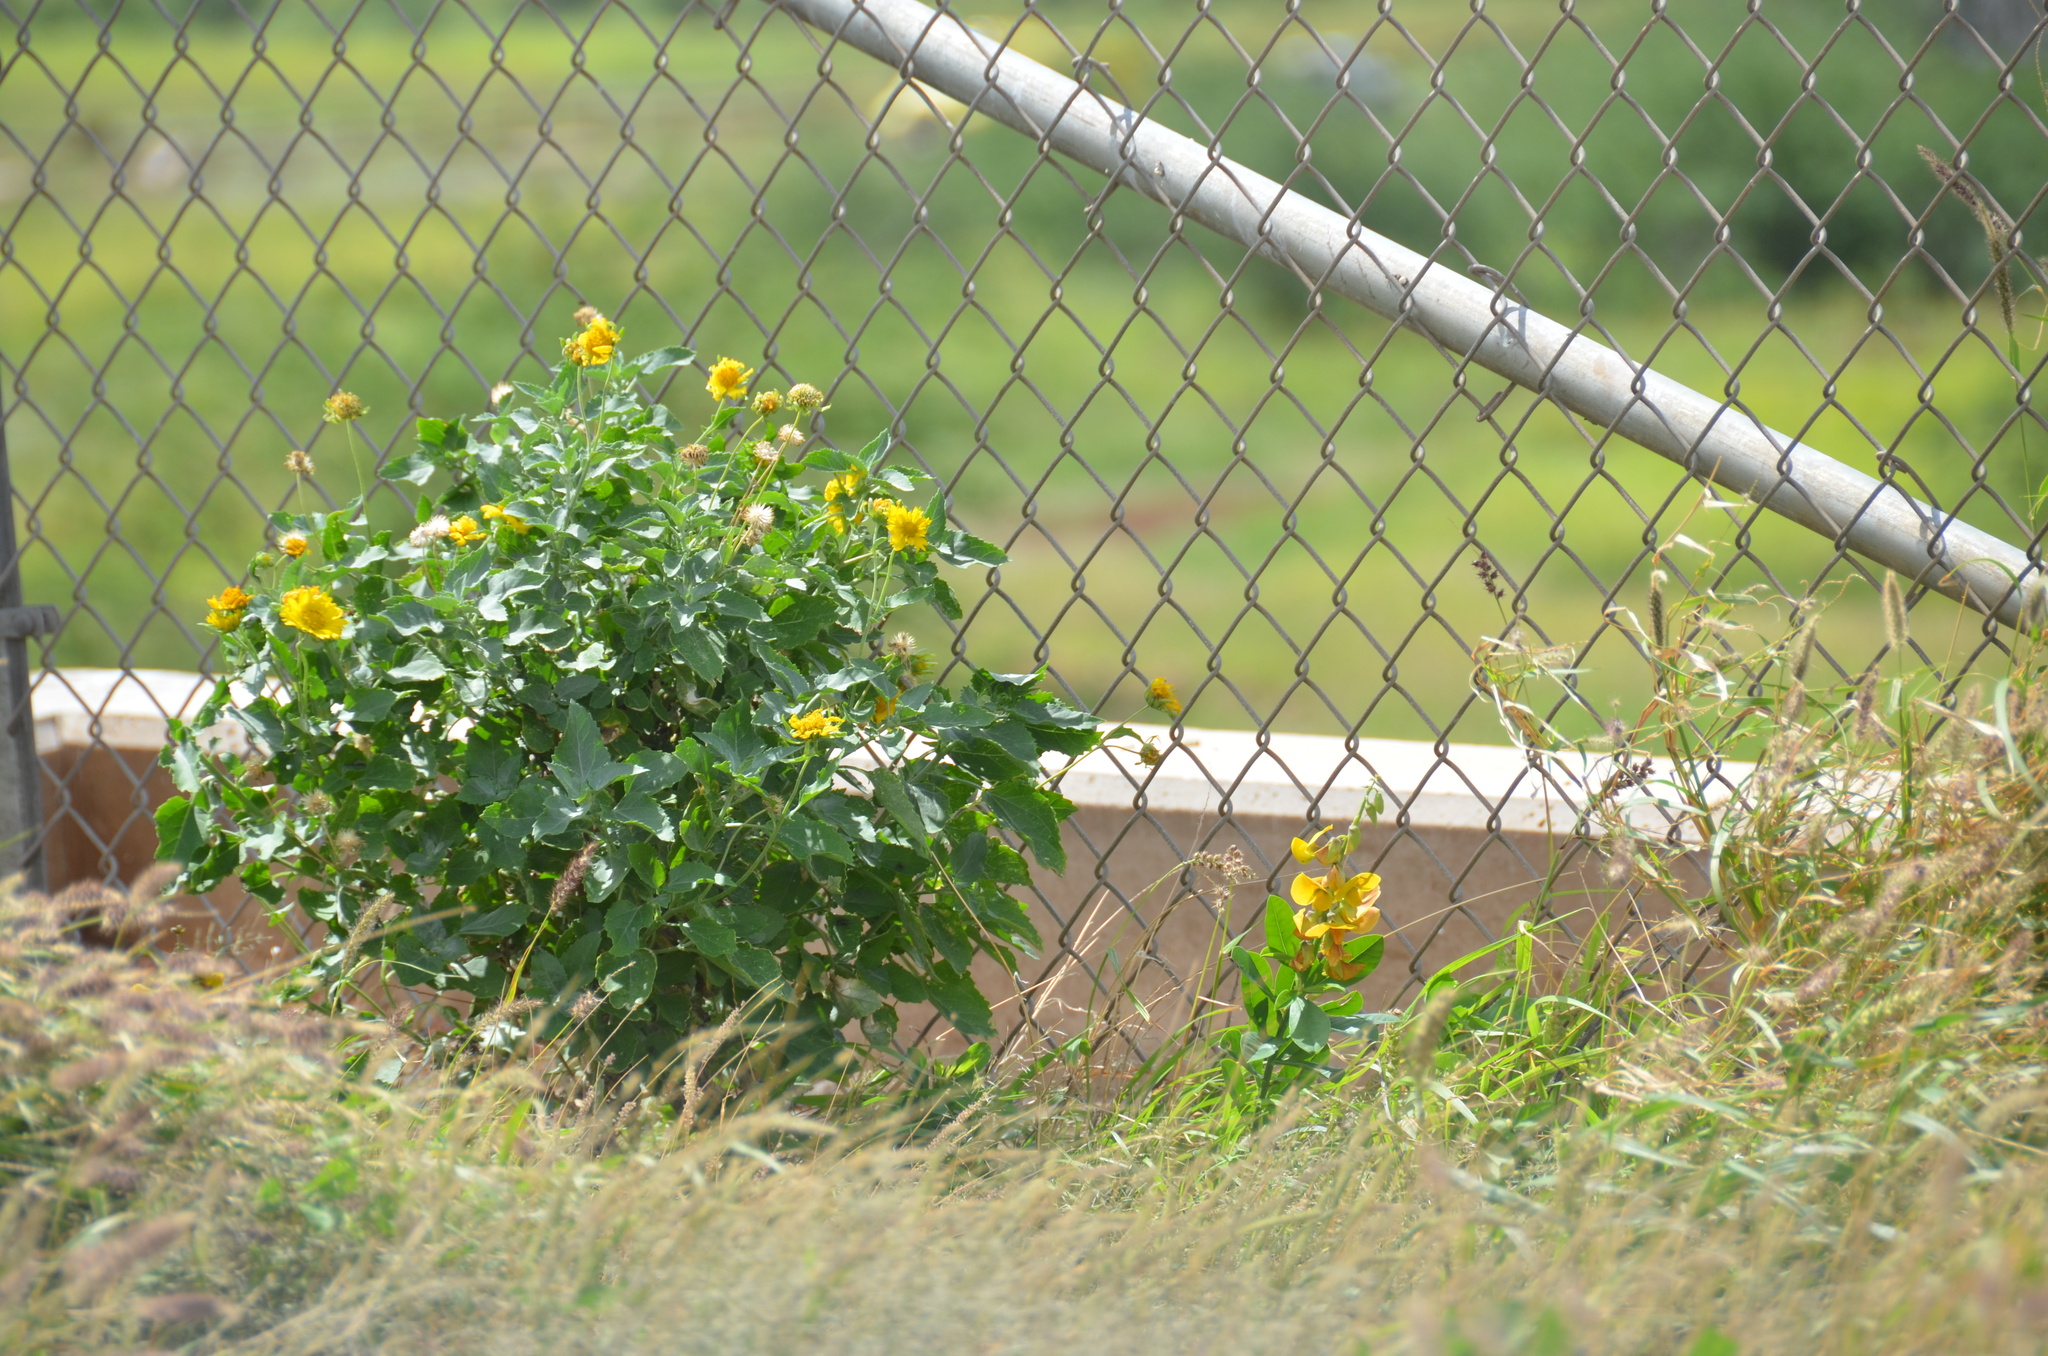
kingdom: Plantae
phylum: Tracheophyta
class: Magnoliopsida
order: Asterales
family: Asteraceae
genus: Verbesina
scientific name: Verbesina encelioides
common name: Golden crownbeard
